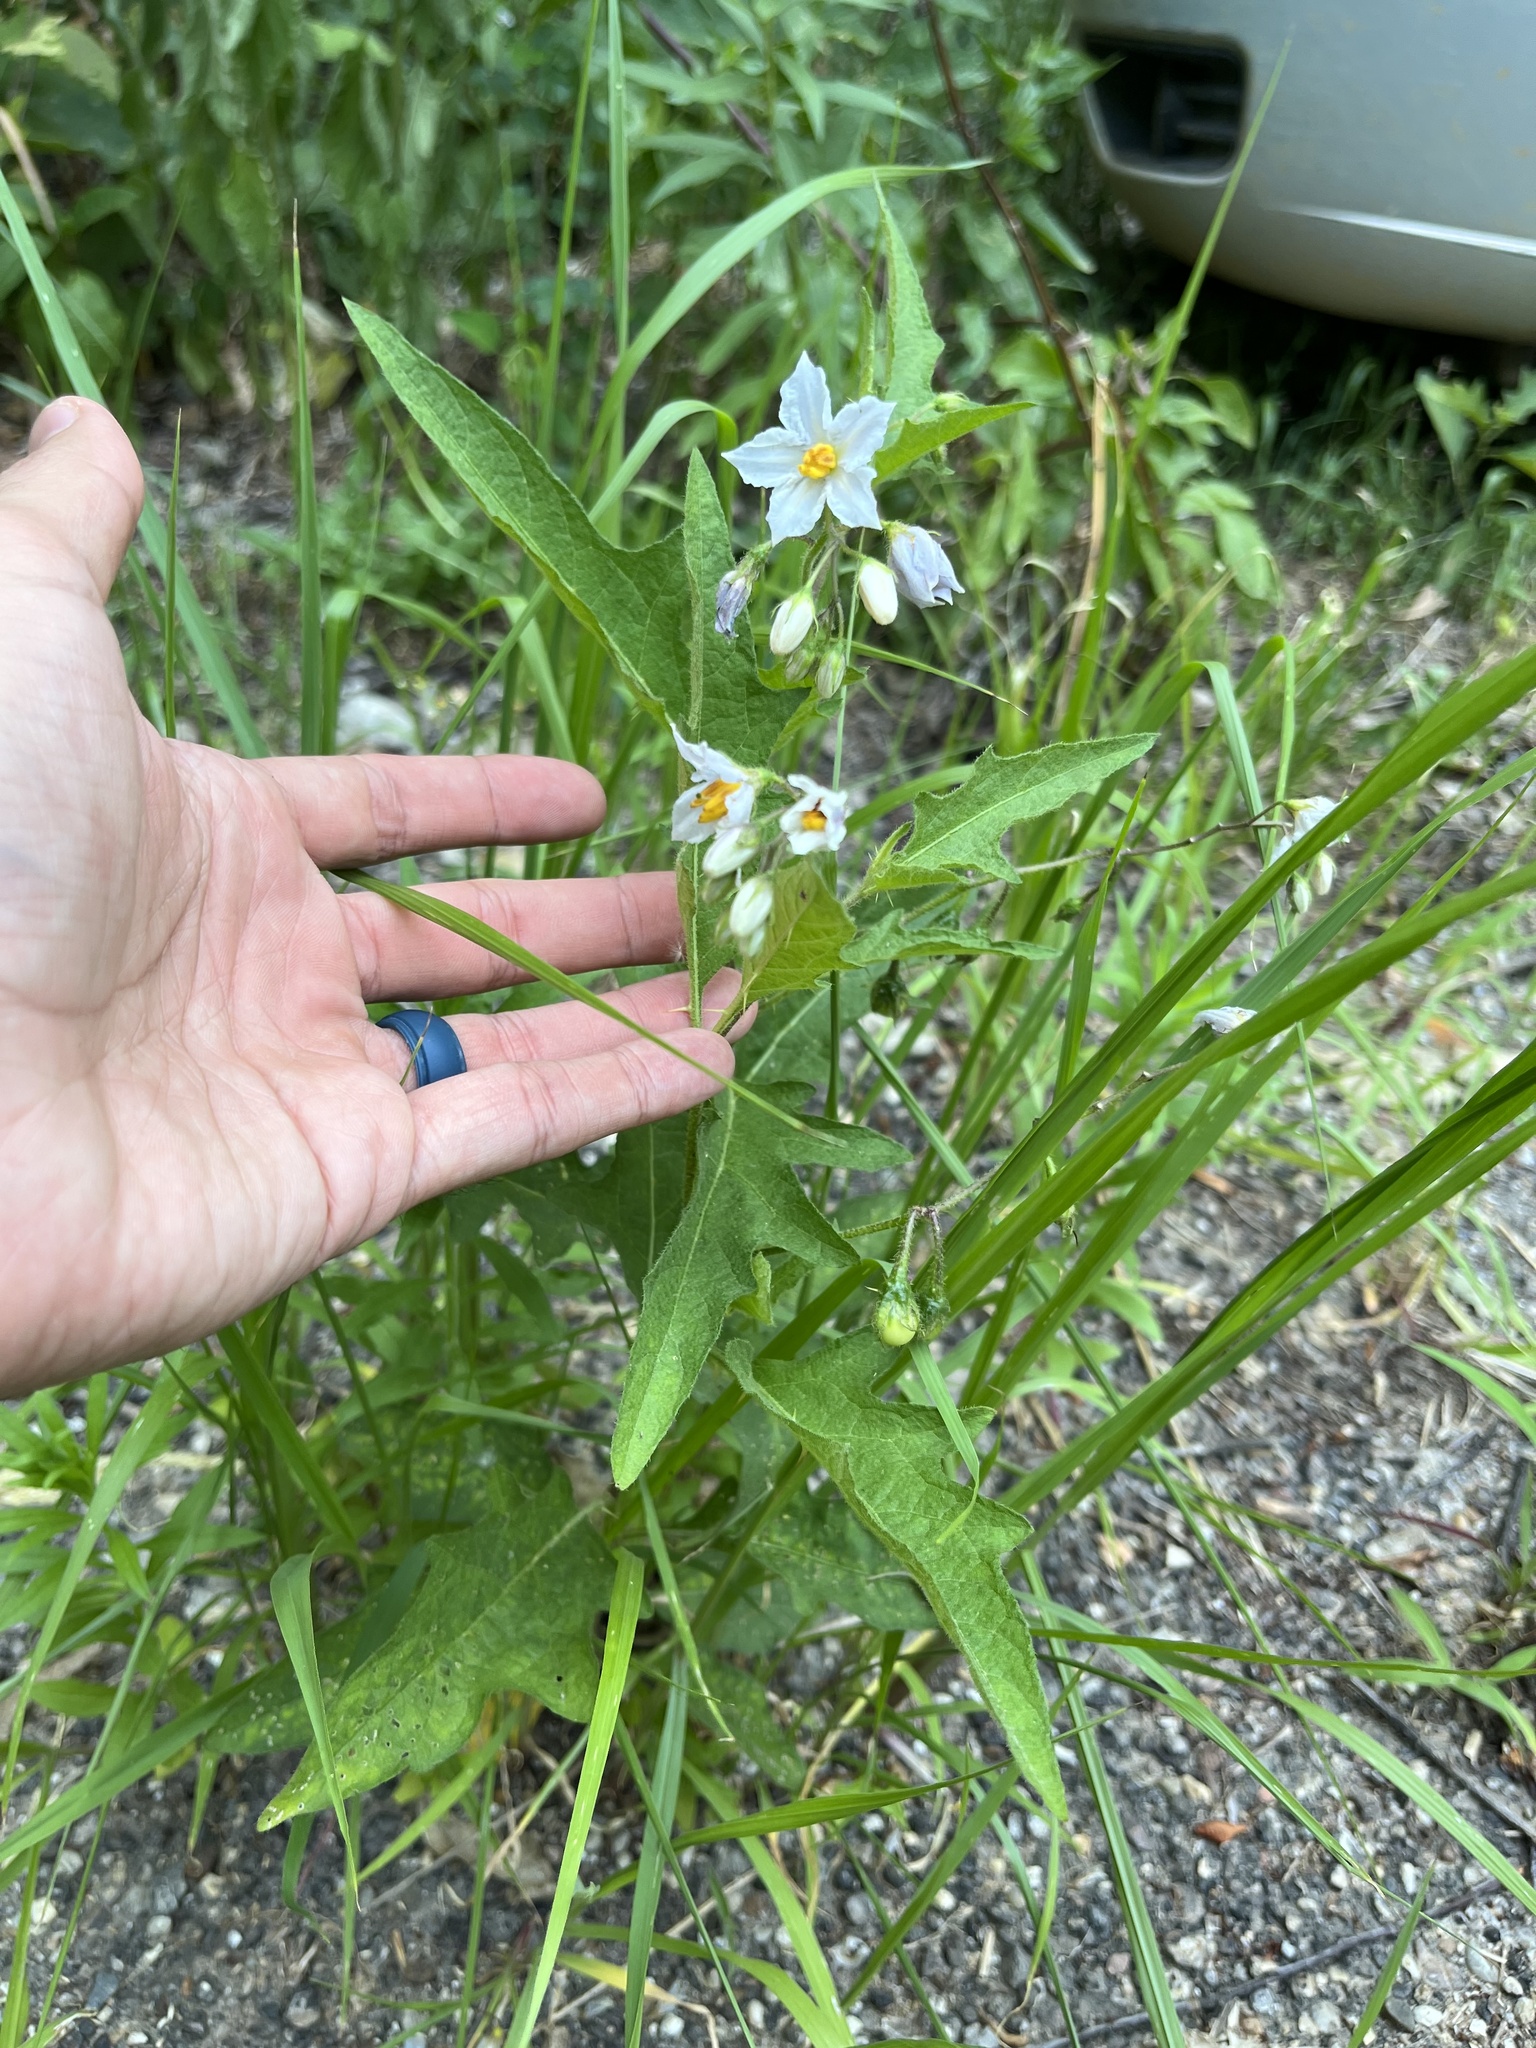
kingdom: Plantae
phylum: Tracheophyta
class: Magnoliopsida
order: Solanales
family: Solanaceae
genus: Solanum
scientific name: Solanum carolinense
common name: Horse-nettle
